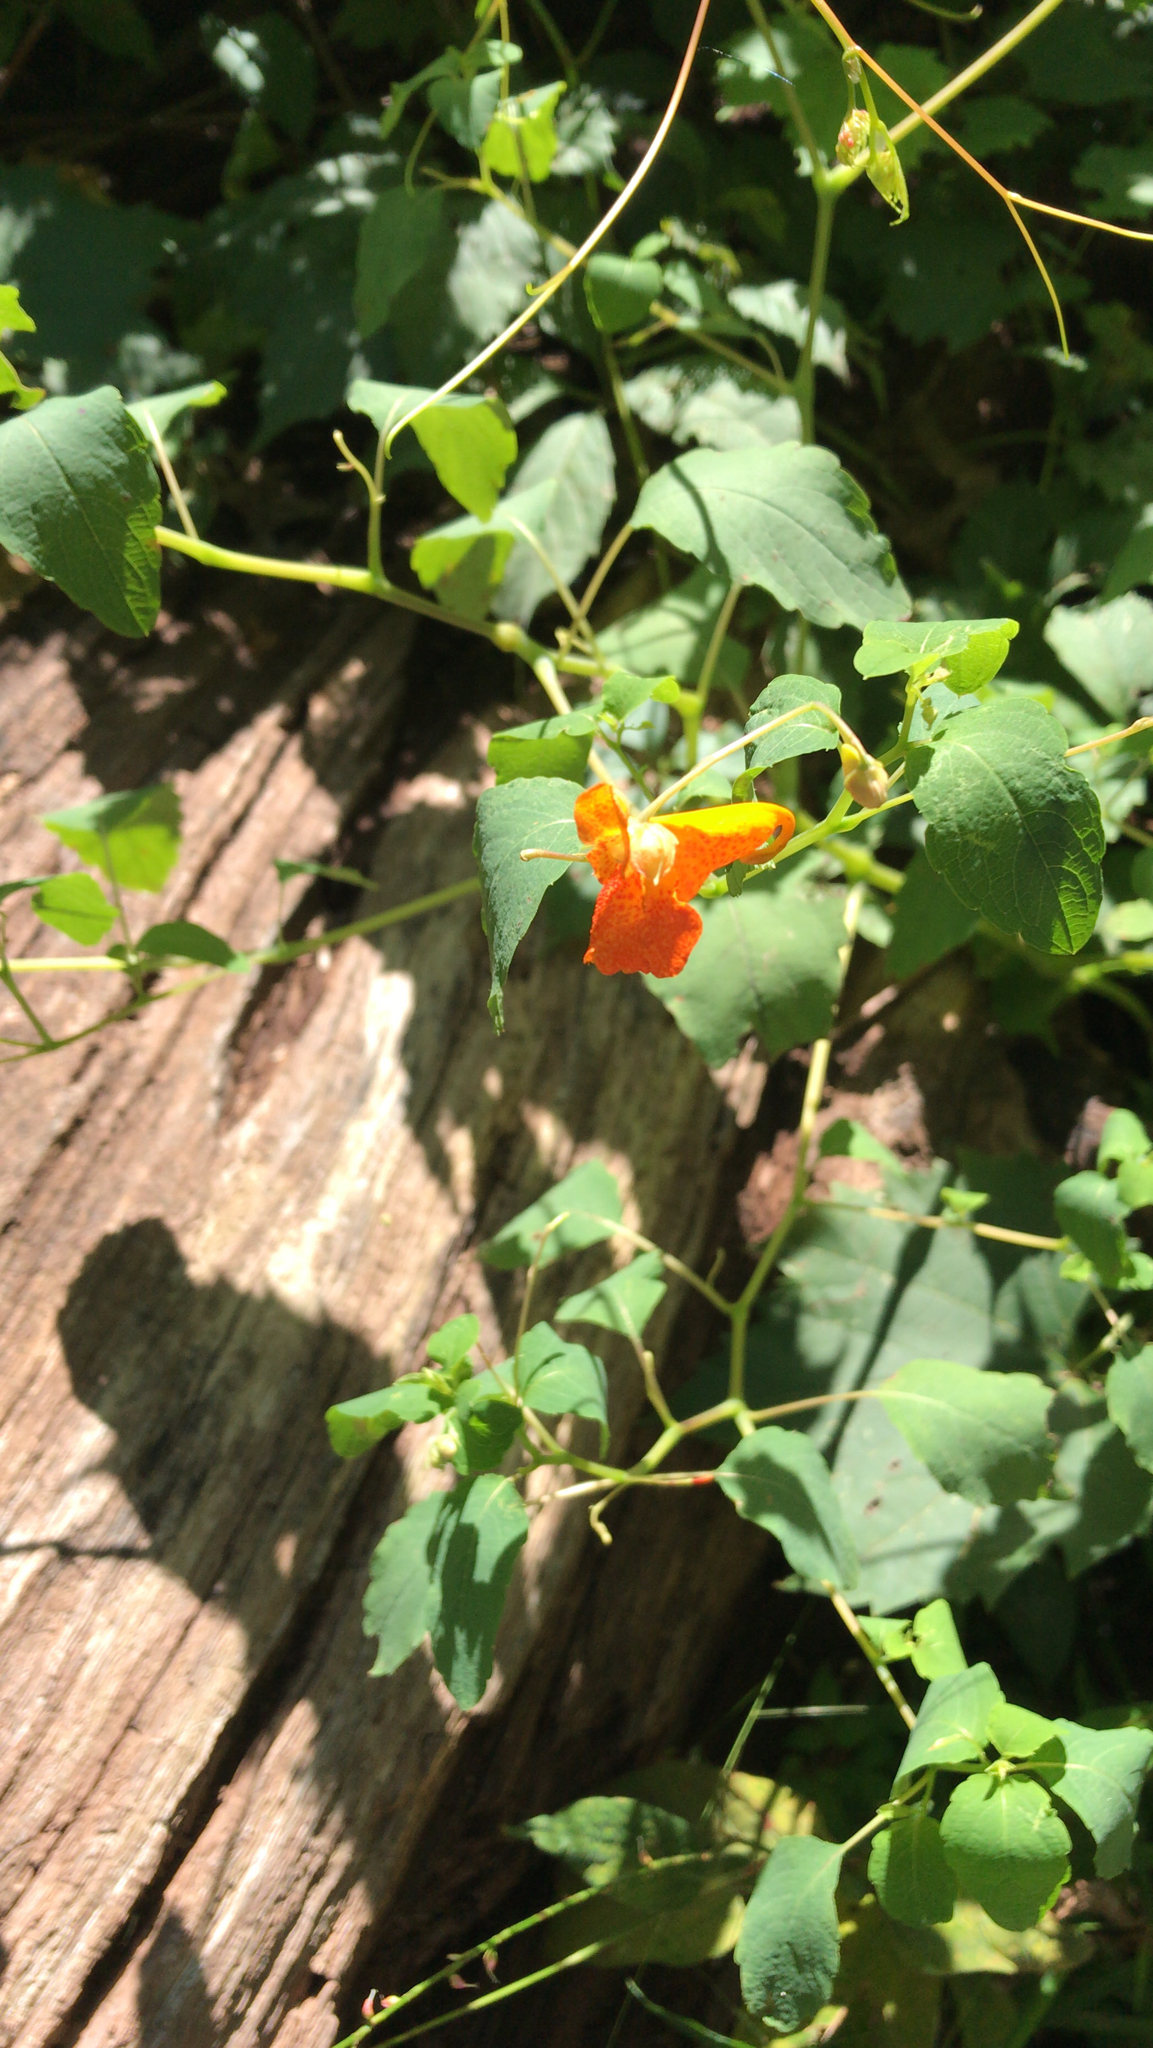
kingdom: Plantae
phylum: Tracheophyta
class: Magnoliopsida
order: Ericales
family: Balsaminaceae
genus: Impatiens
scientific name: Impatiens capensis
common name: Orange balsam
